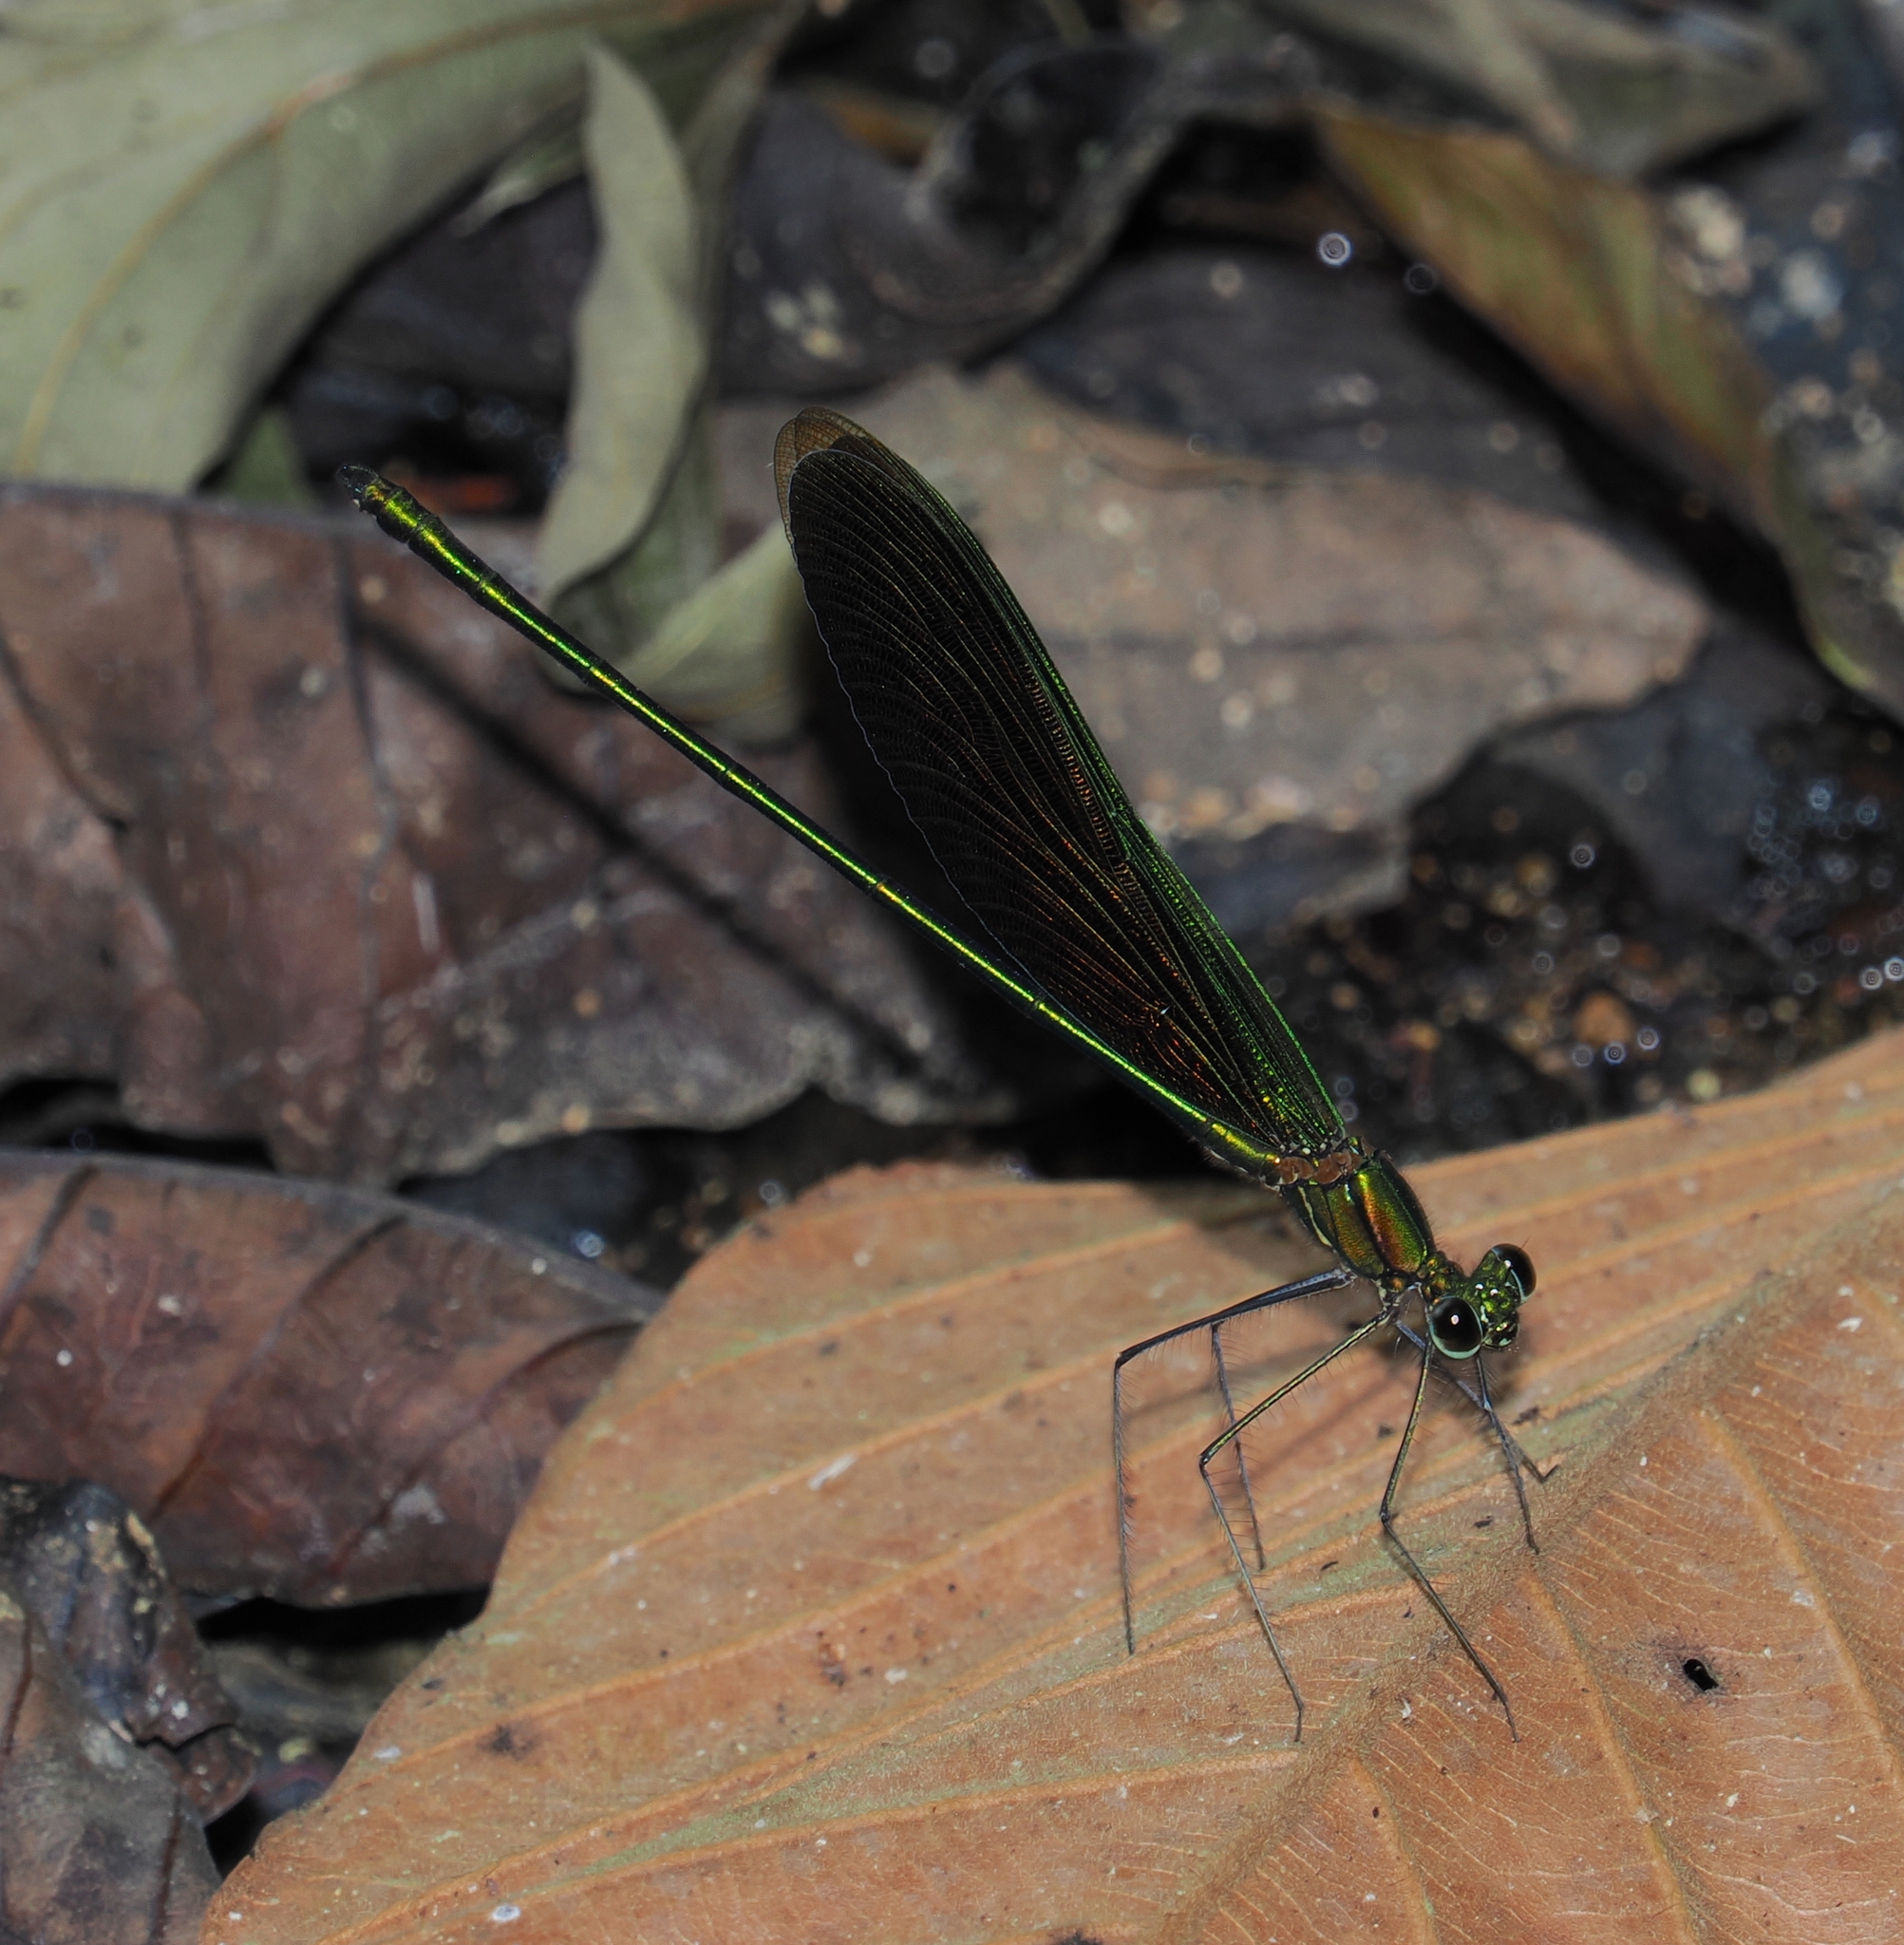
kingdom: Animalia
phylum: Arthropoda
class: Insecta
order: Odonata
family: Calopterygidae
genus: Neurobasis
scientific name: Neurobasis chinensis
